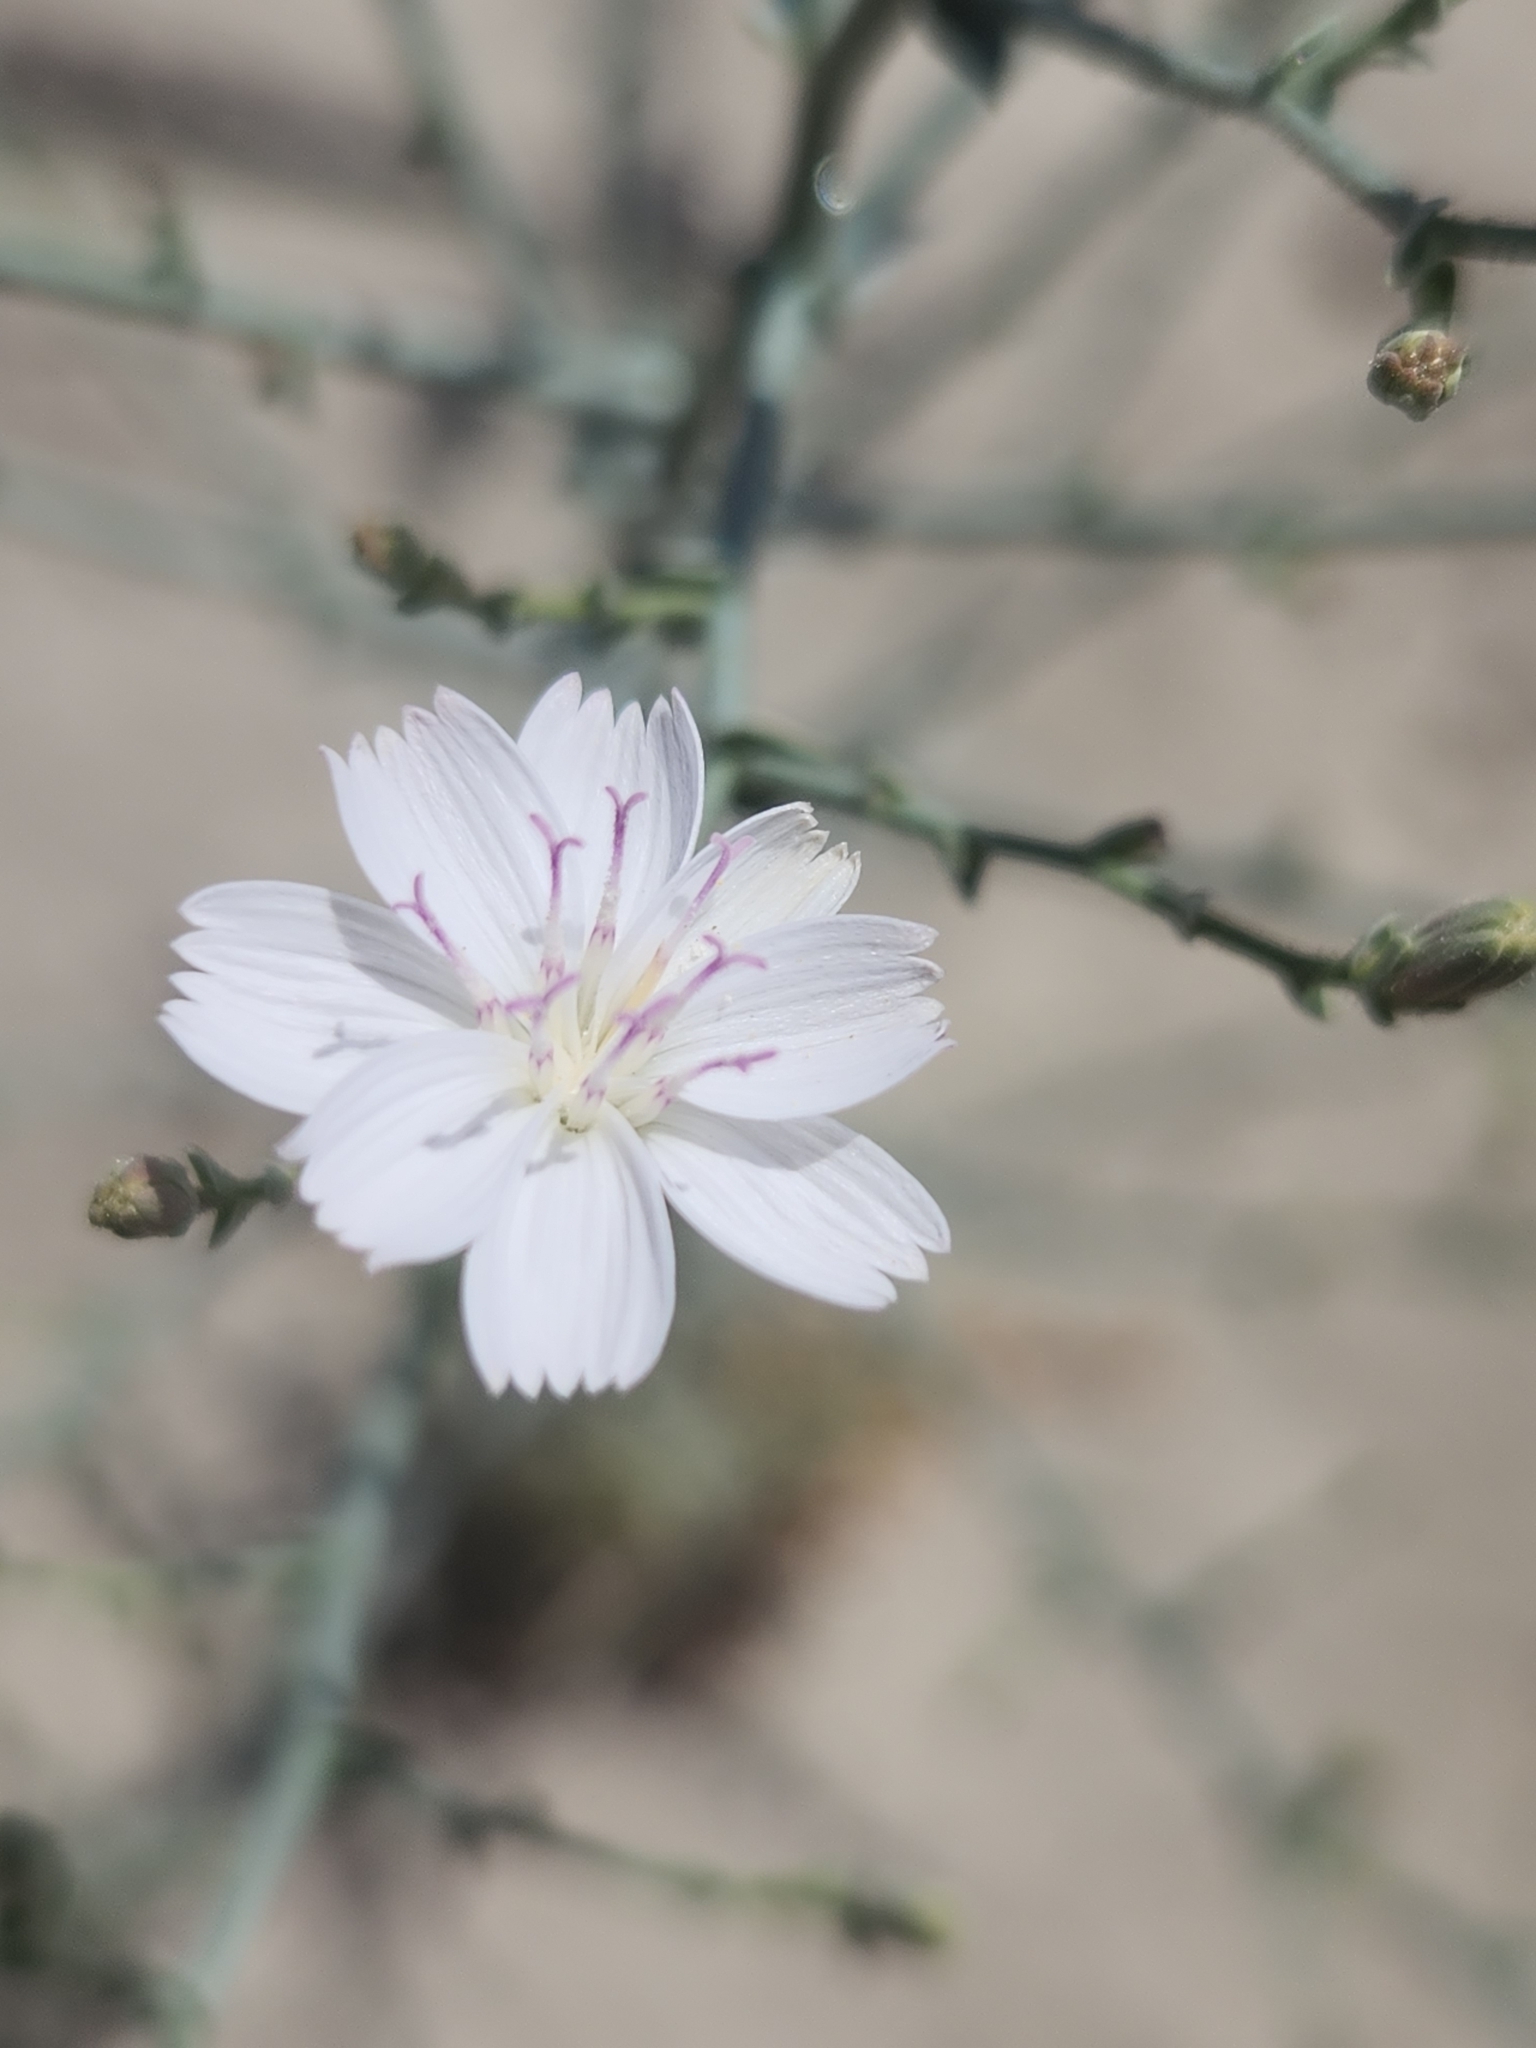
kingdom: Plantae
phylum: Tracheophyta
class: Magnoliopsida
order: Asterales
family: Asteraceae
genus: Stephanomeria
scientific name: Stephanomeria exigua
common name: Small wirelettuce
